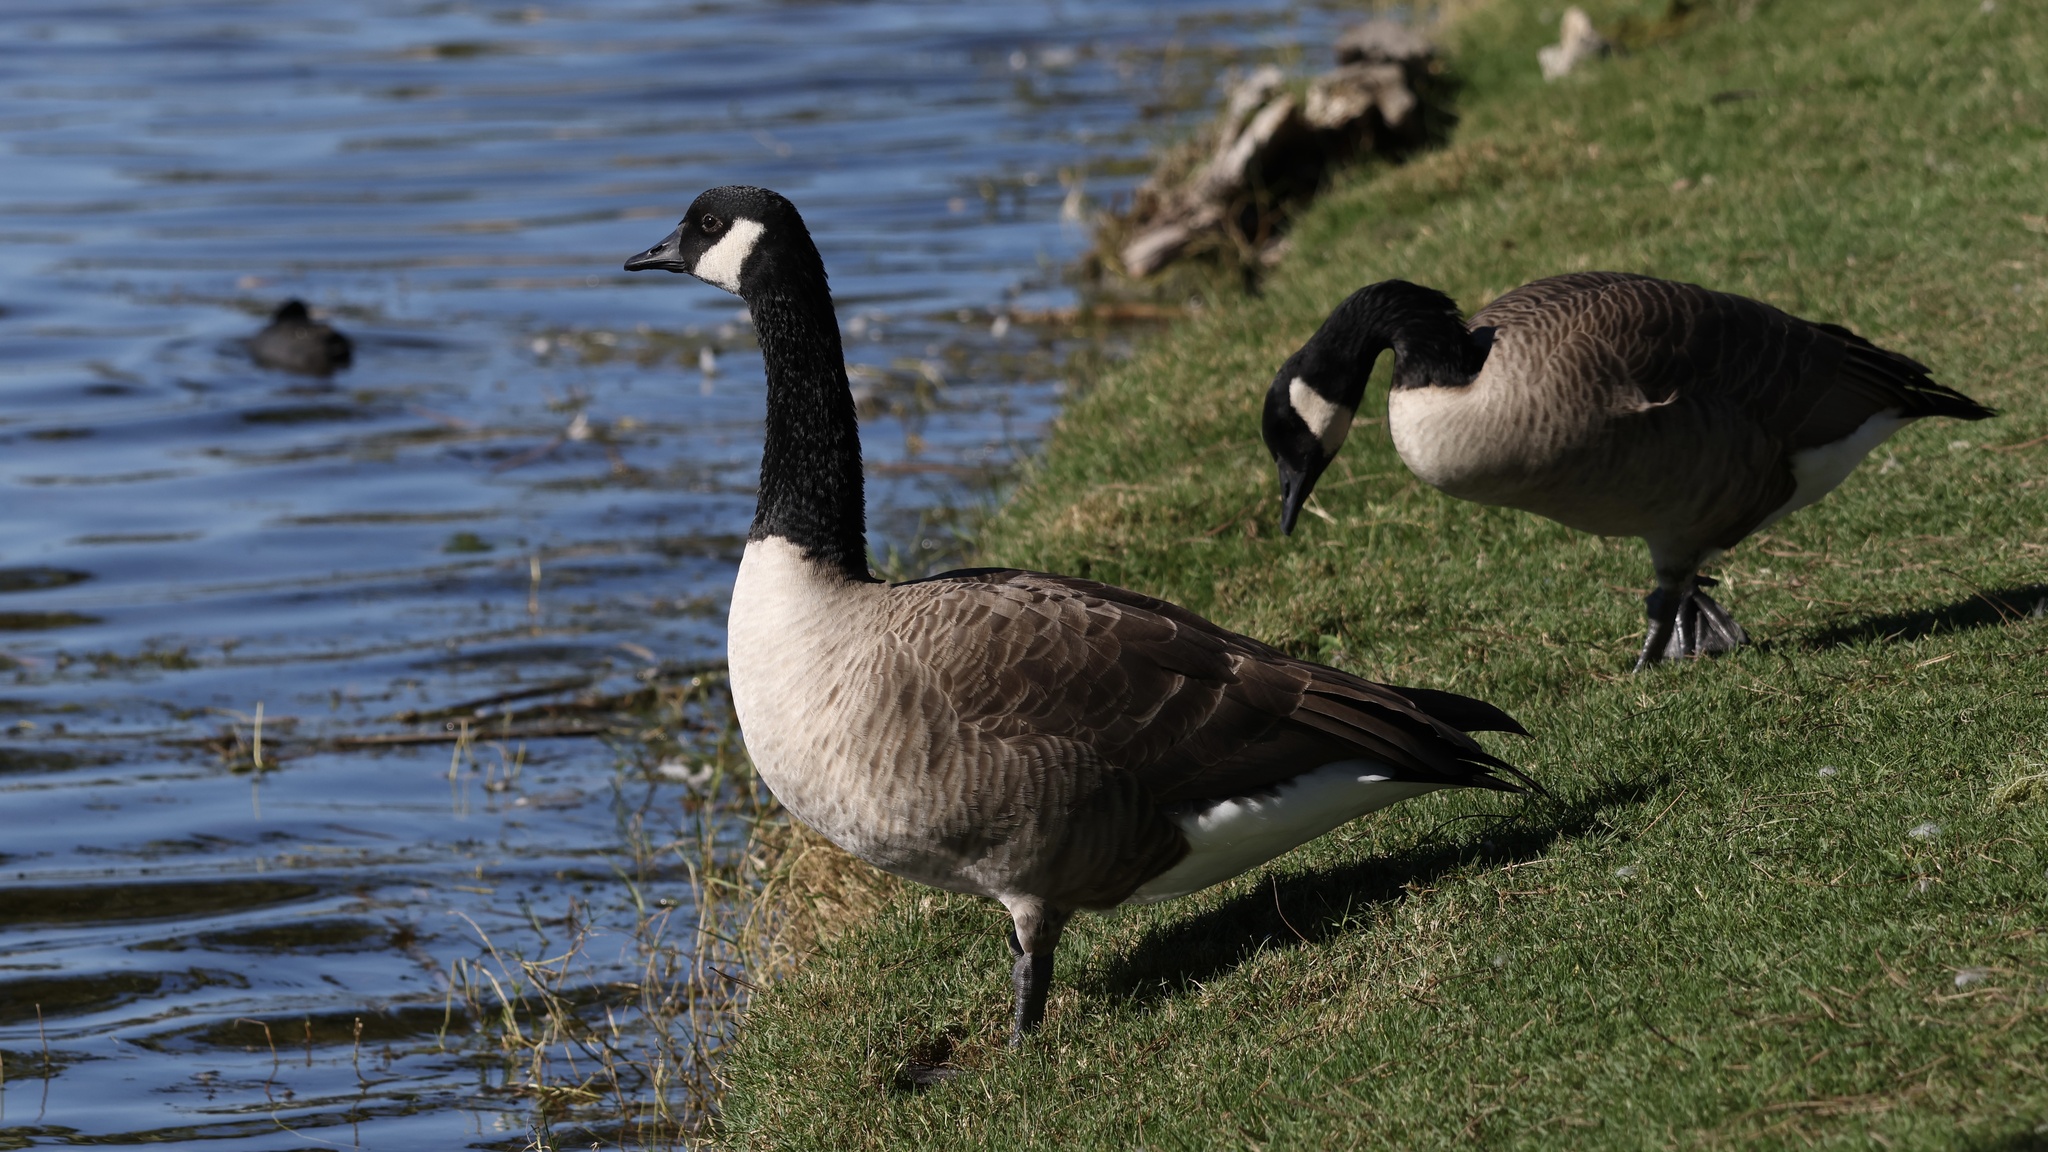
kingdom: Animalia
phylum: Chordata
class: Aves
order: Anseriformes
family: Anatidae
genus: Branta
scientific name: Branta canadensis
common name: Canada goose
